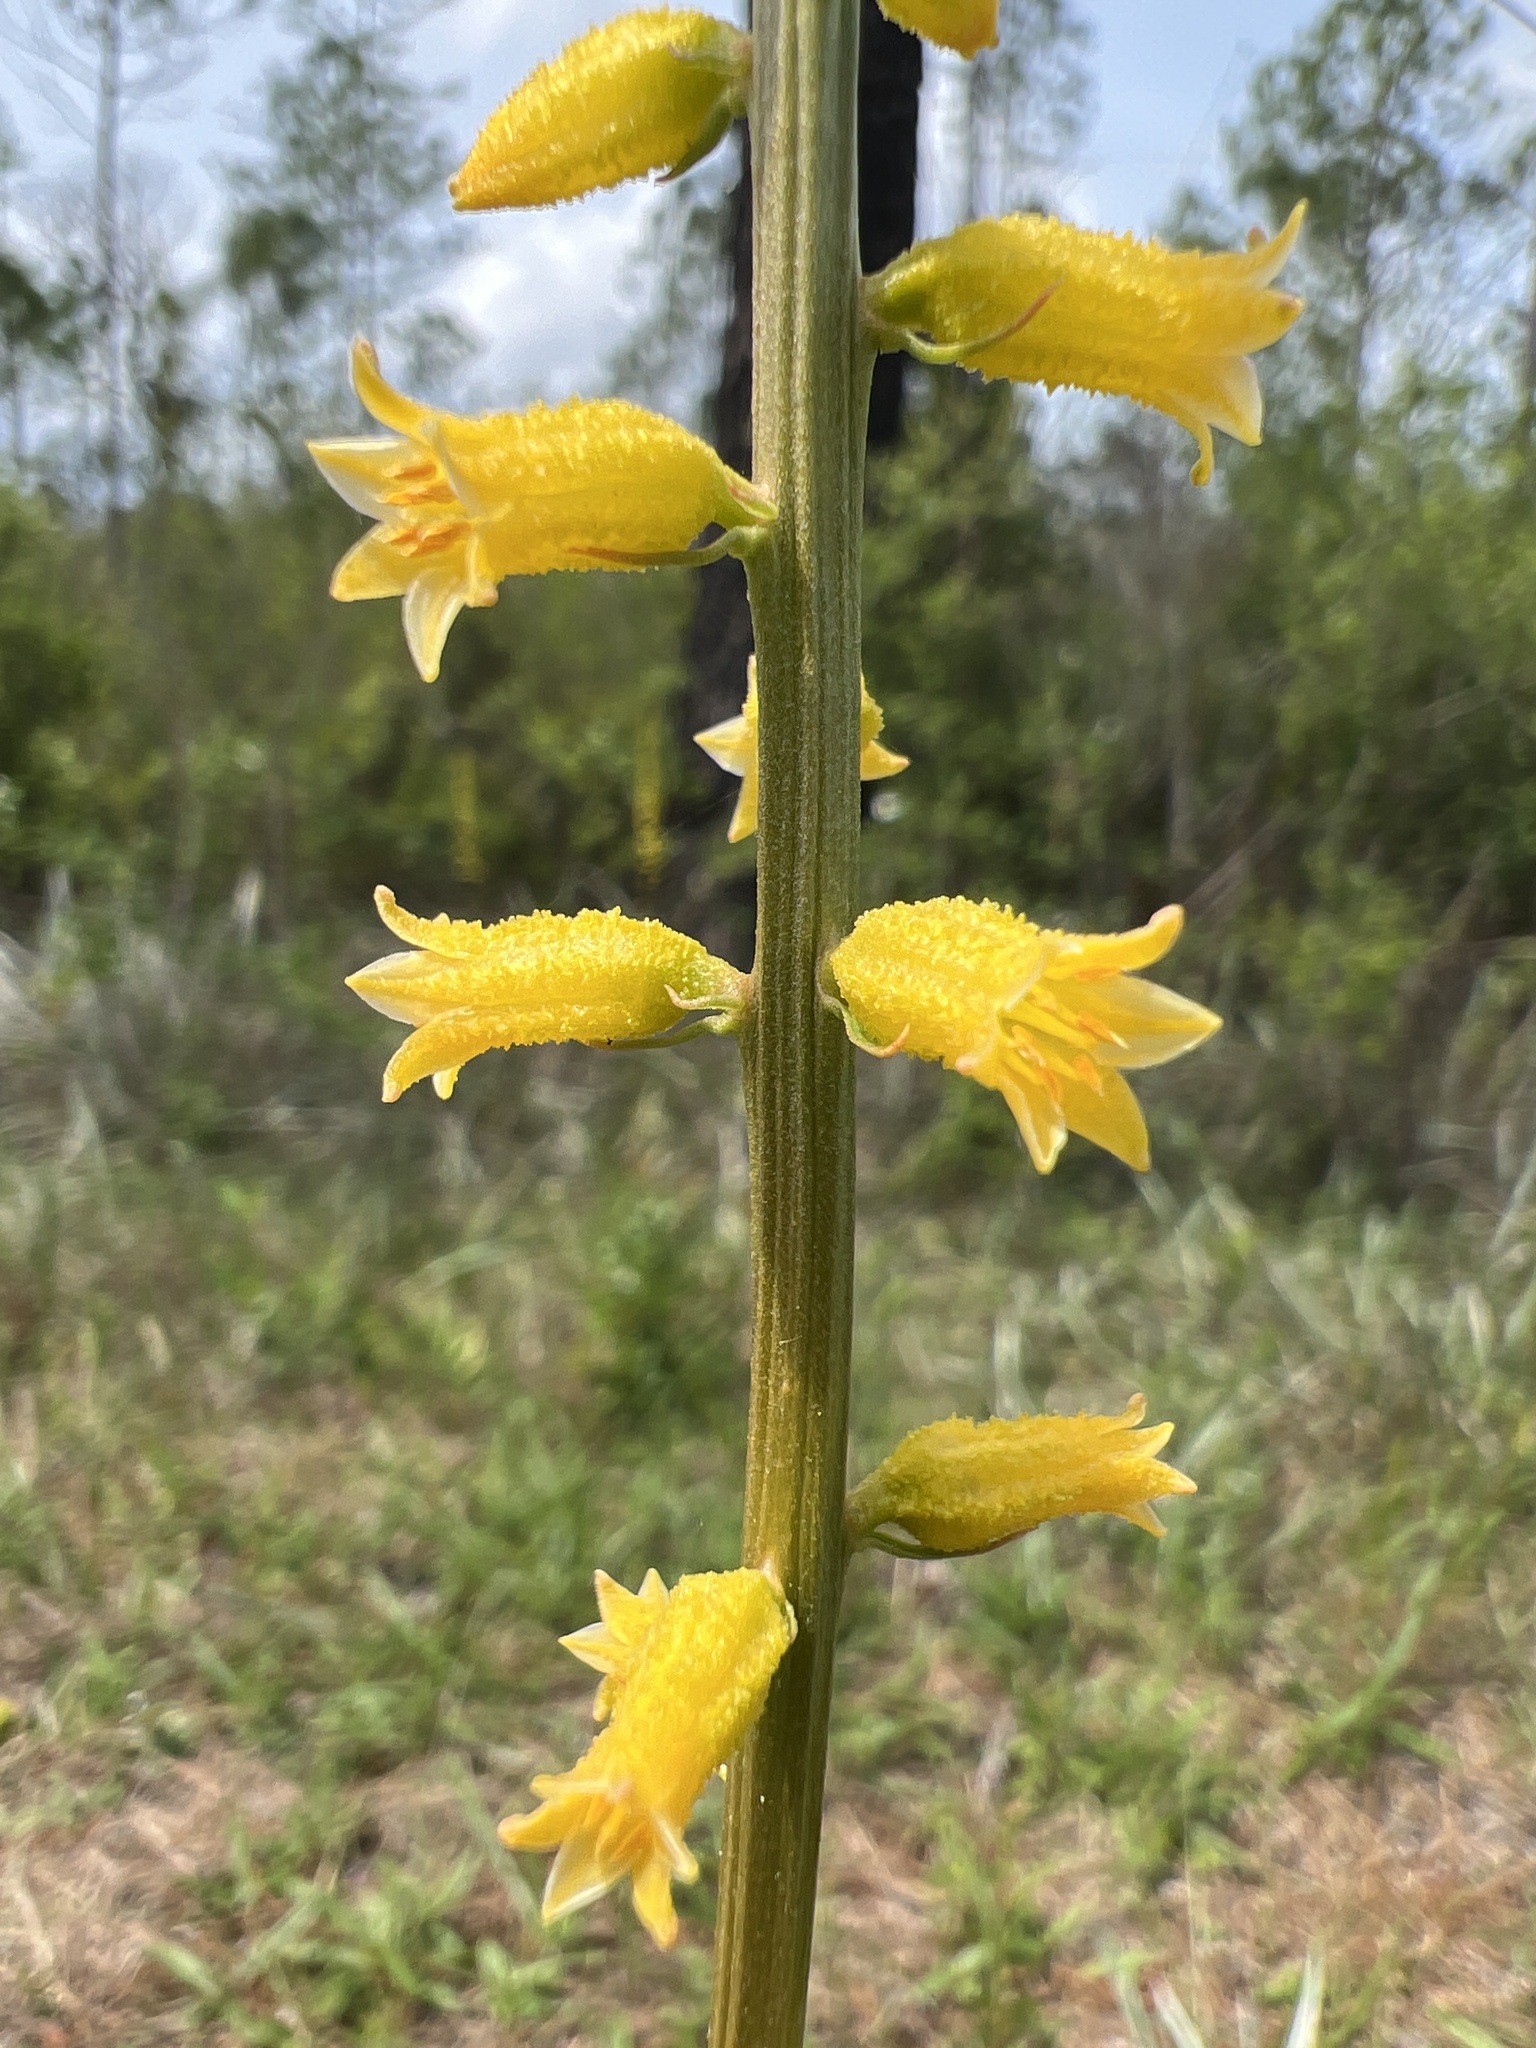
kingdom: Plantae
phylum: Tracheophyta
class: Liliopsida
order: Dioscoreales
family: Nartheciaceae
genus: Aletris
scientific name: Aletris lutea
